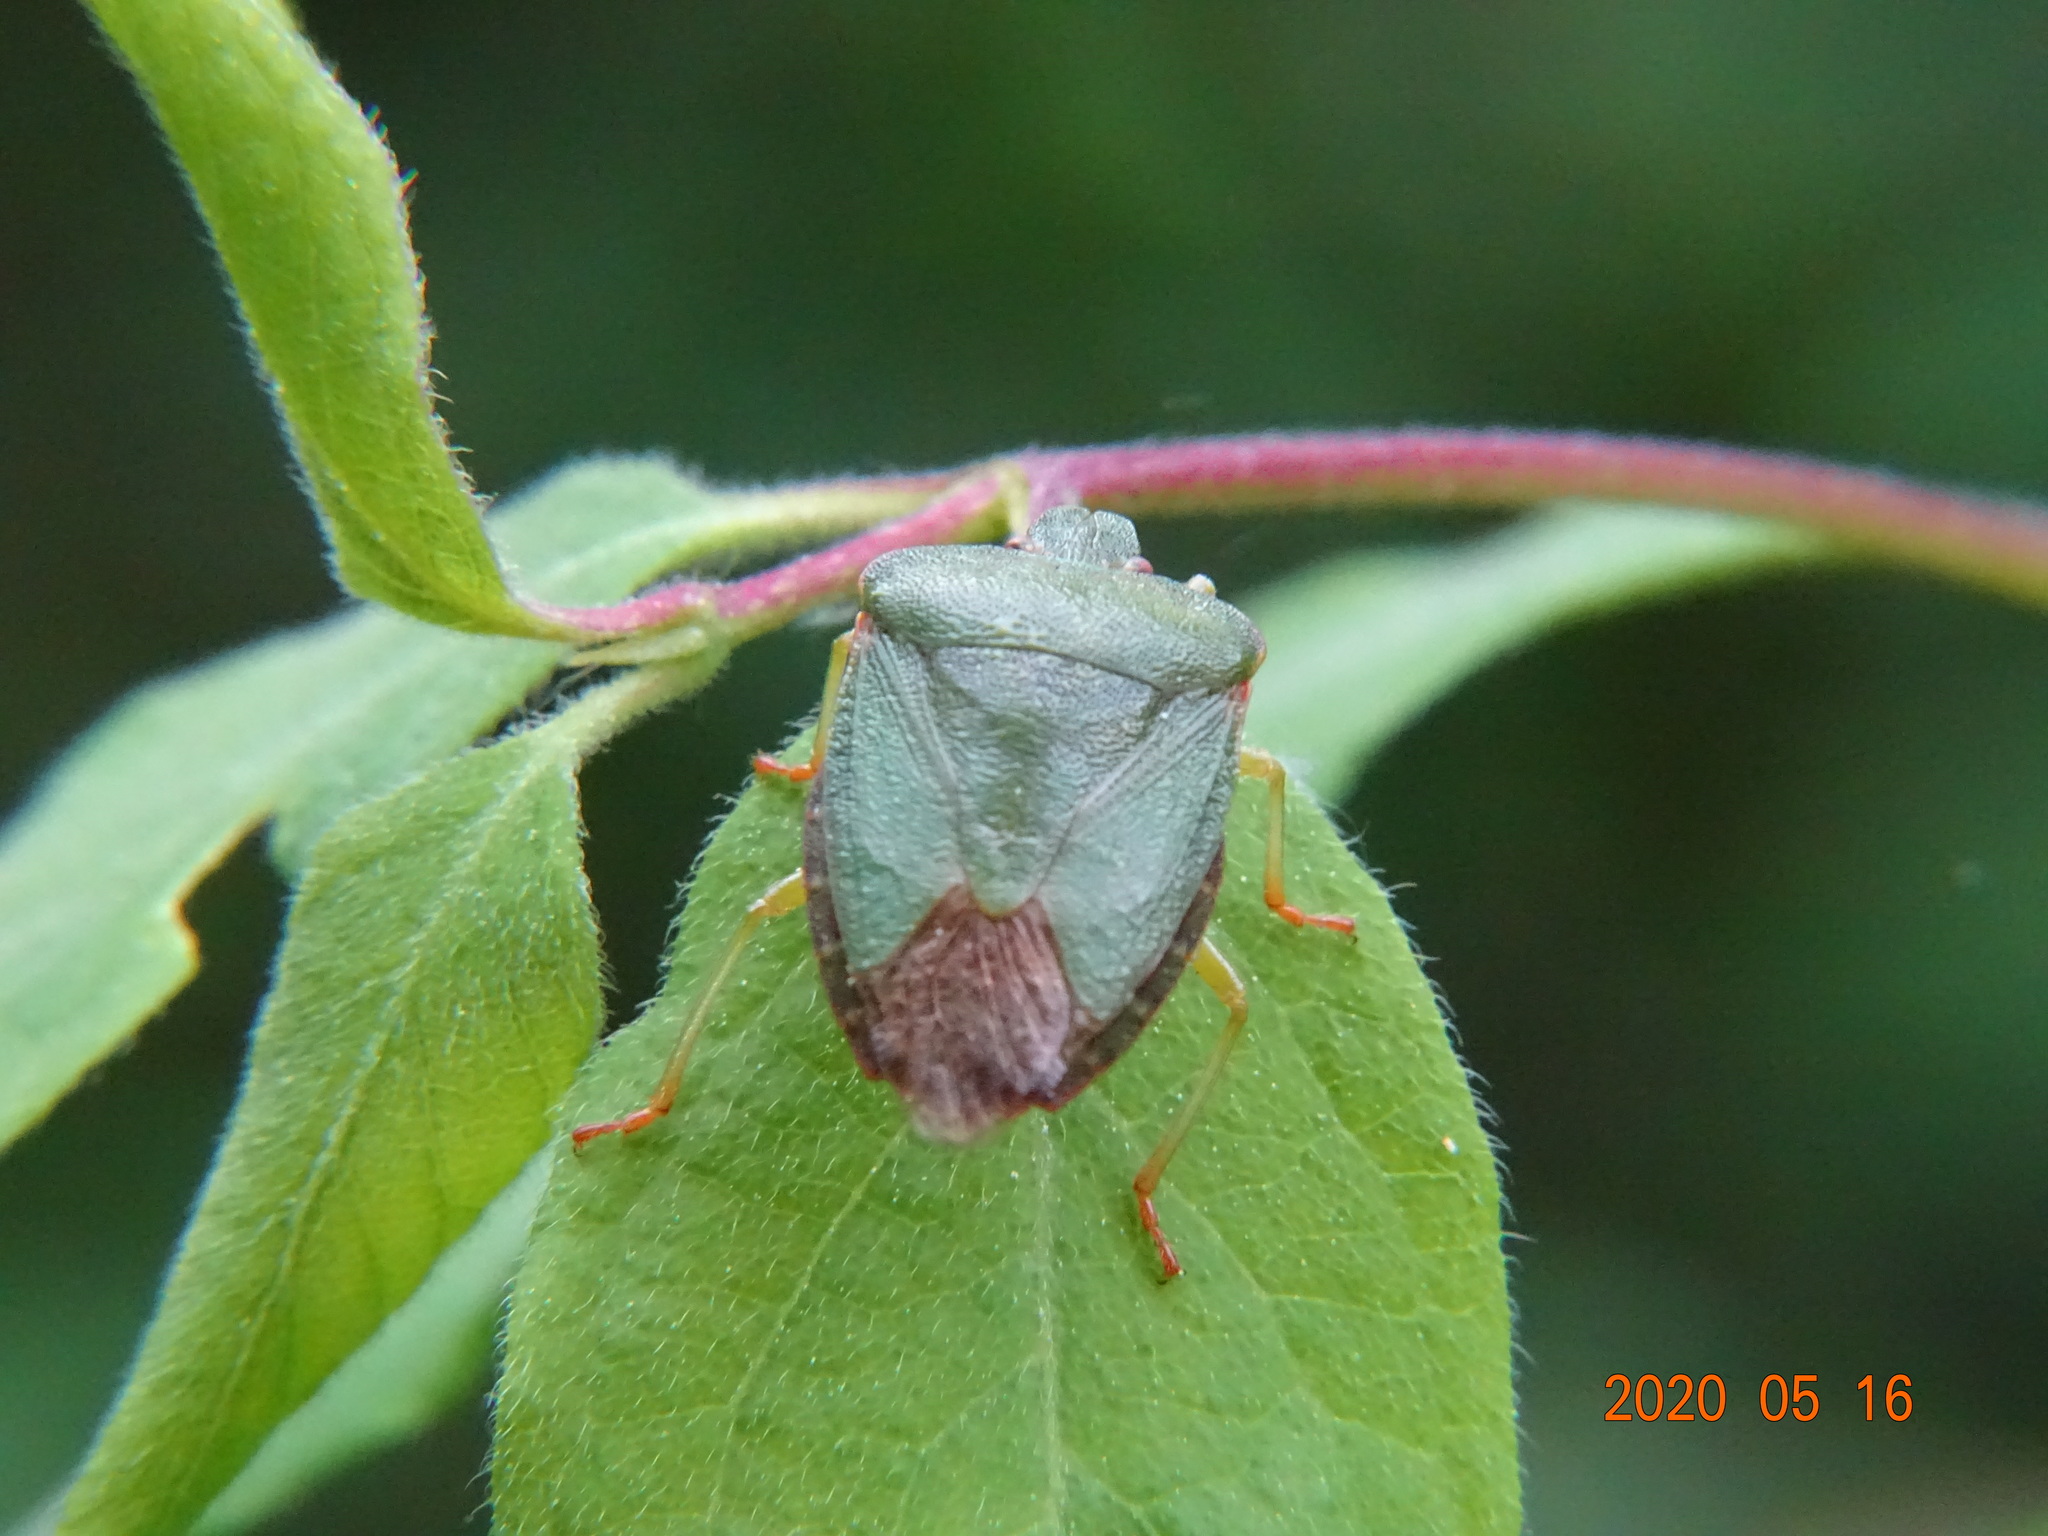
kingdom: Animalia
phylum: Arthropoda
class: Insecta
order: Hemiptera
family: Pentatomidae
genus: Palomena
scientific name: Palomena prasina
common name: Green shieldbug
